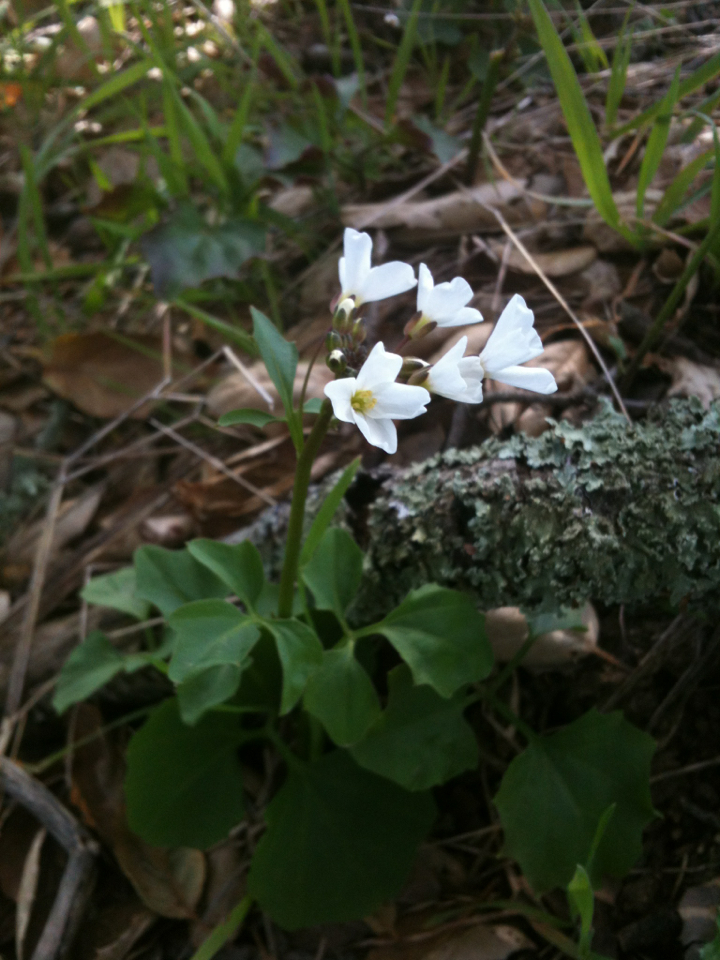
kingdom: Plantae
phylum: Tracheophyta
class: Magnoliopsida
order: Brassicales
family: Brassicaceae
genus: Cardamine
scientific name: Cardamine californica
